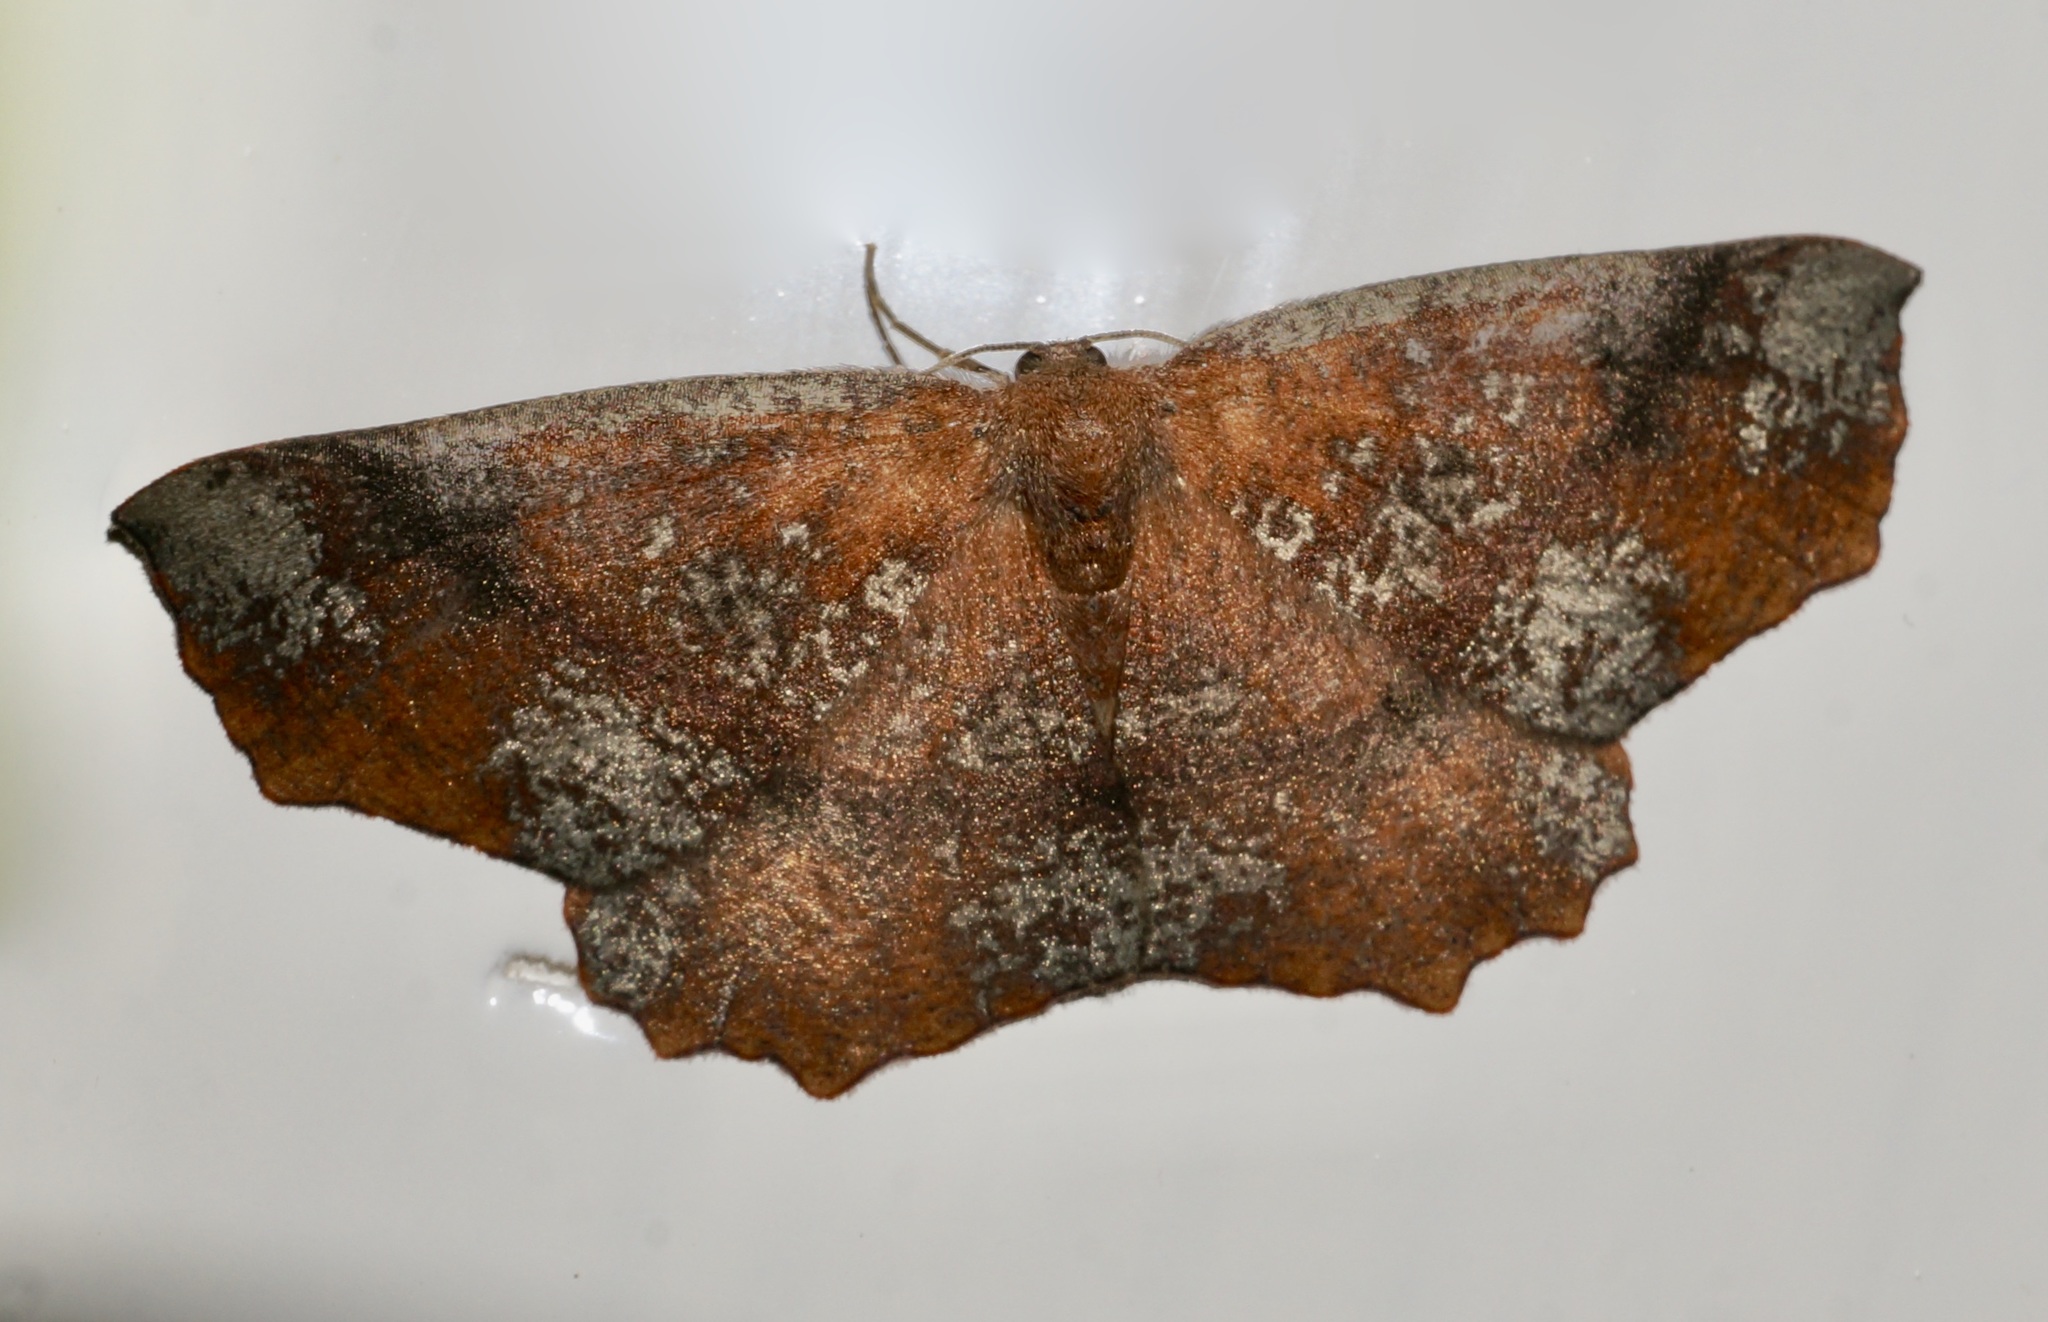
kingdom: Animalia
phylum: Arthropoda
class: Insecta
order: Lepidoptera
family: Geometridae
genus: Xyridacma
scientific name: Xyridacma ustaria
